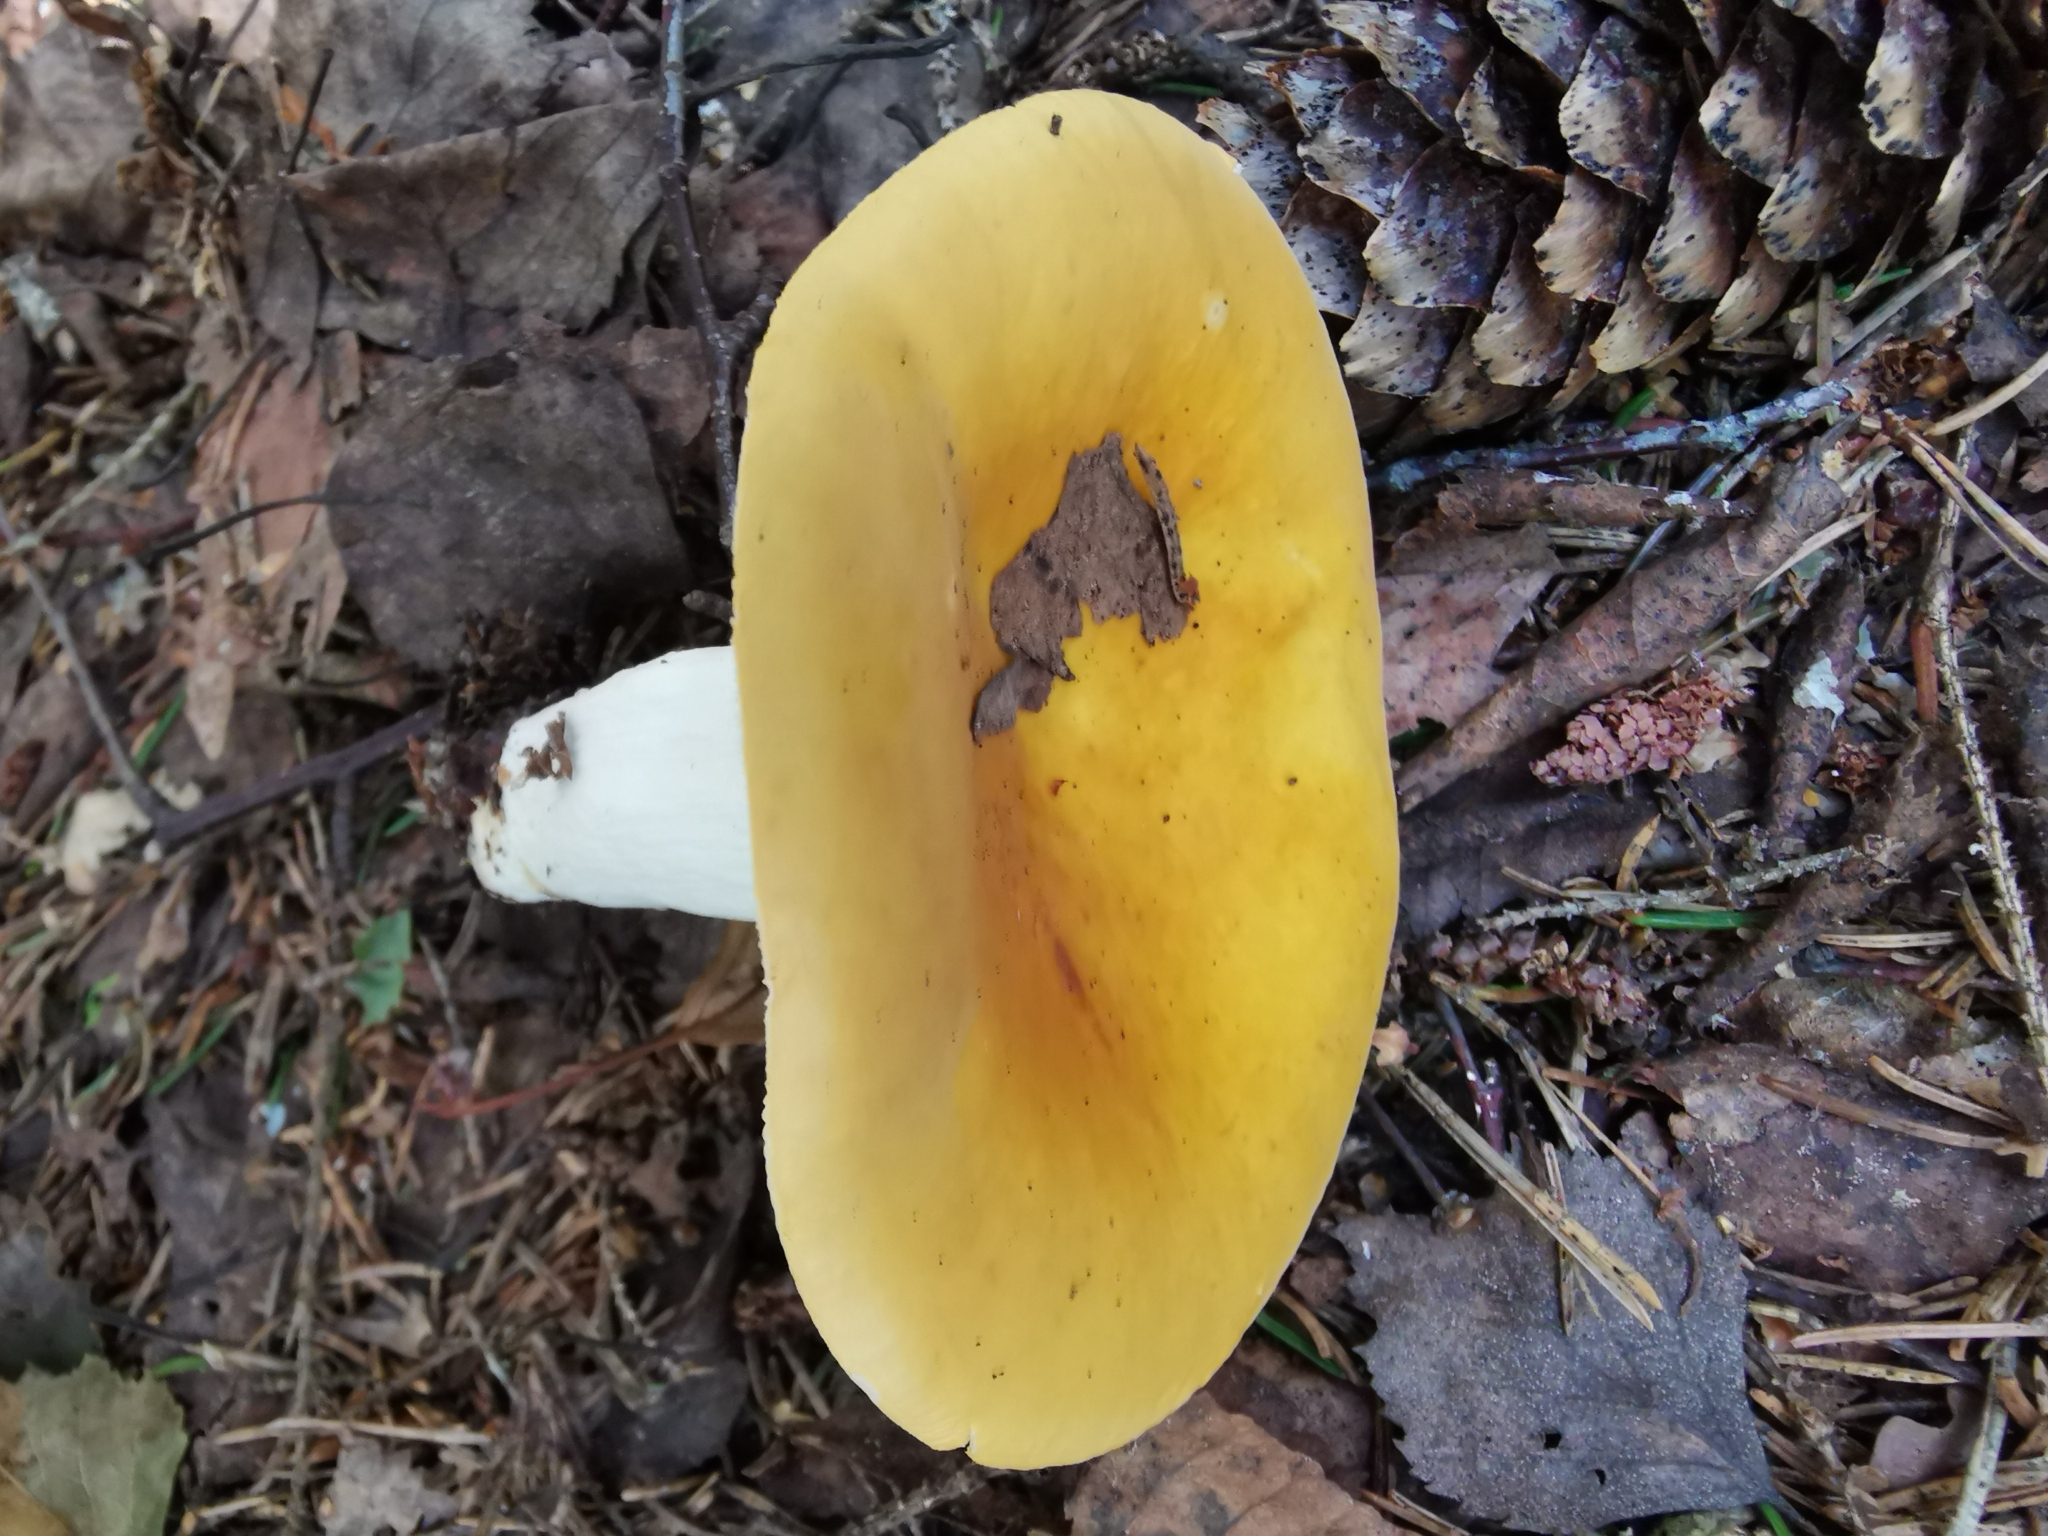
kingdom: Fungi
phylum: Basidiomycota
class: Agaricomycetes
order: Russulales
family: Russulaceae
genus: Russula
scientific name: Russula claroflava
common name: The yellow swamp brittlegill
